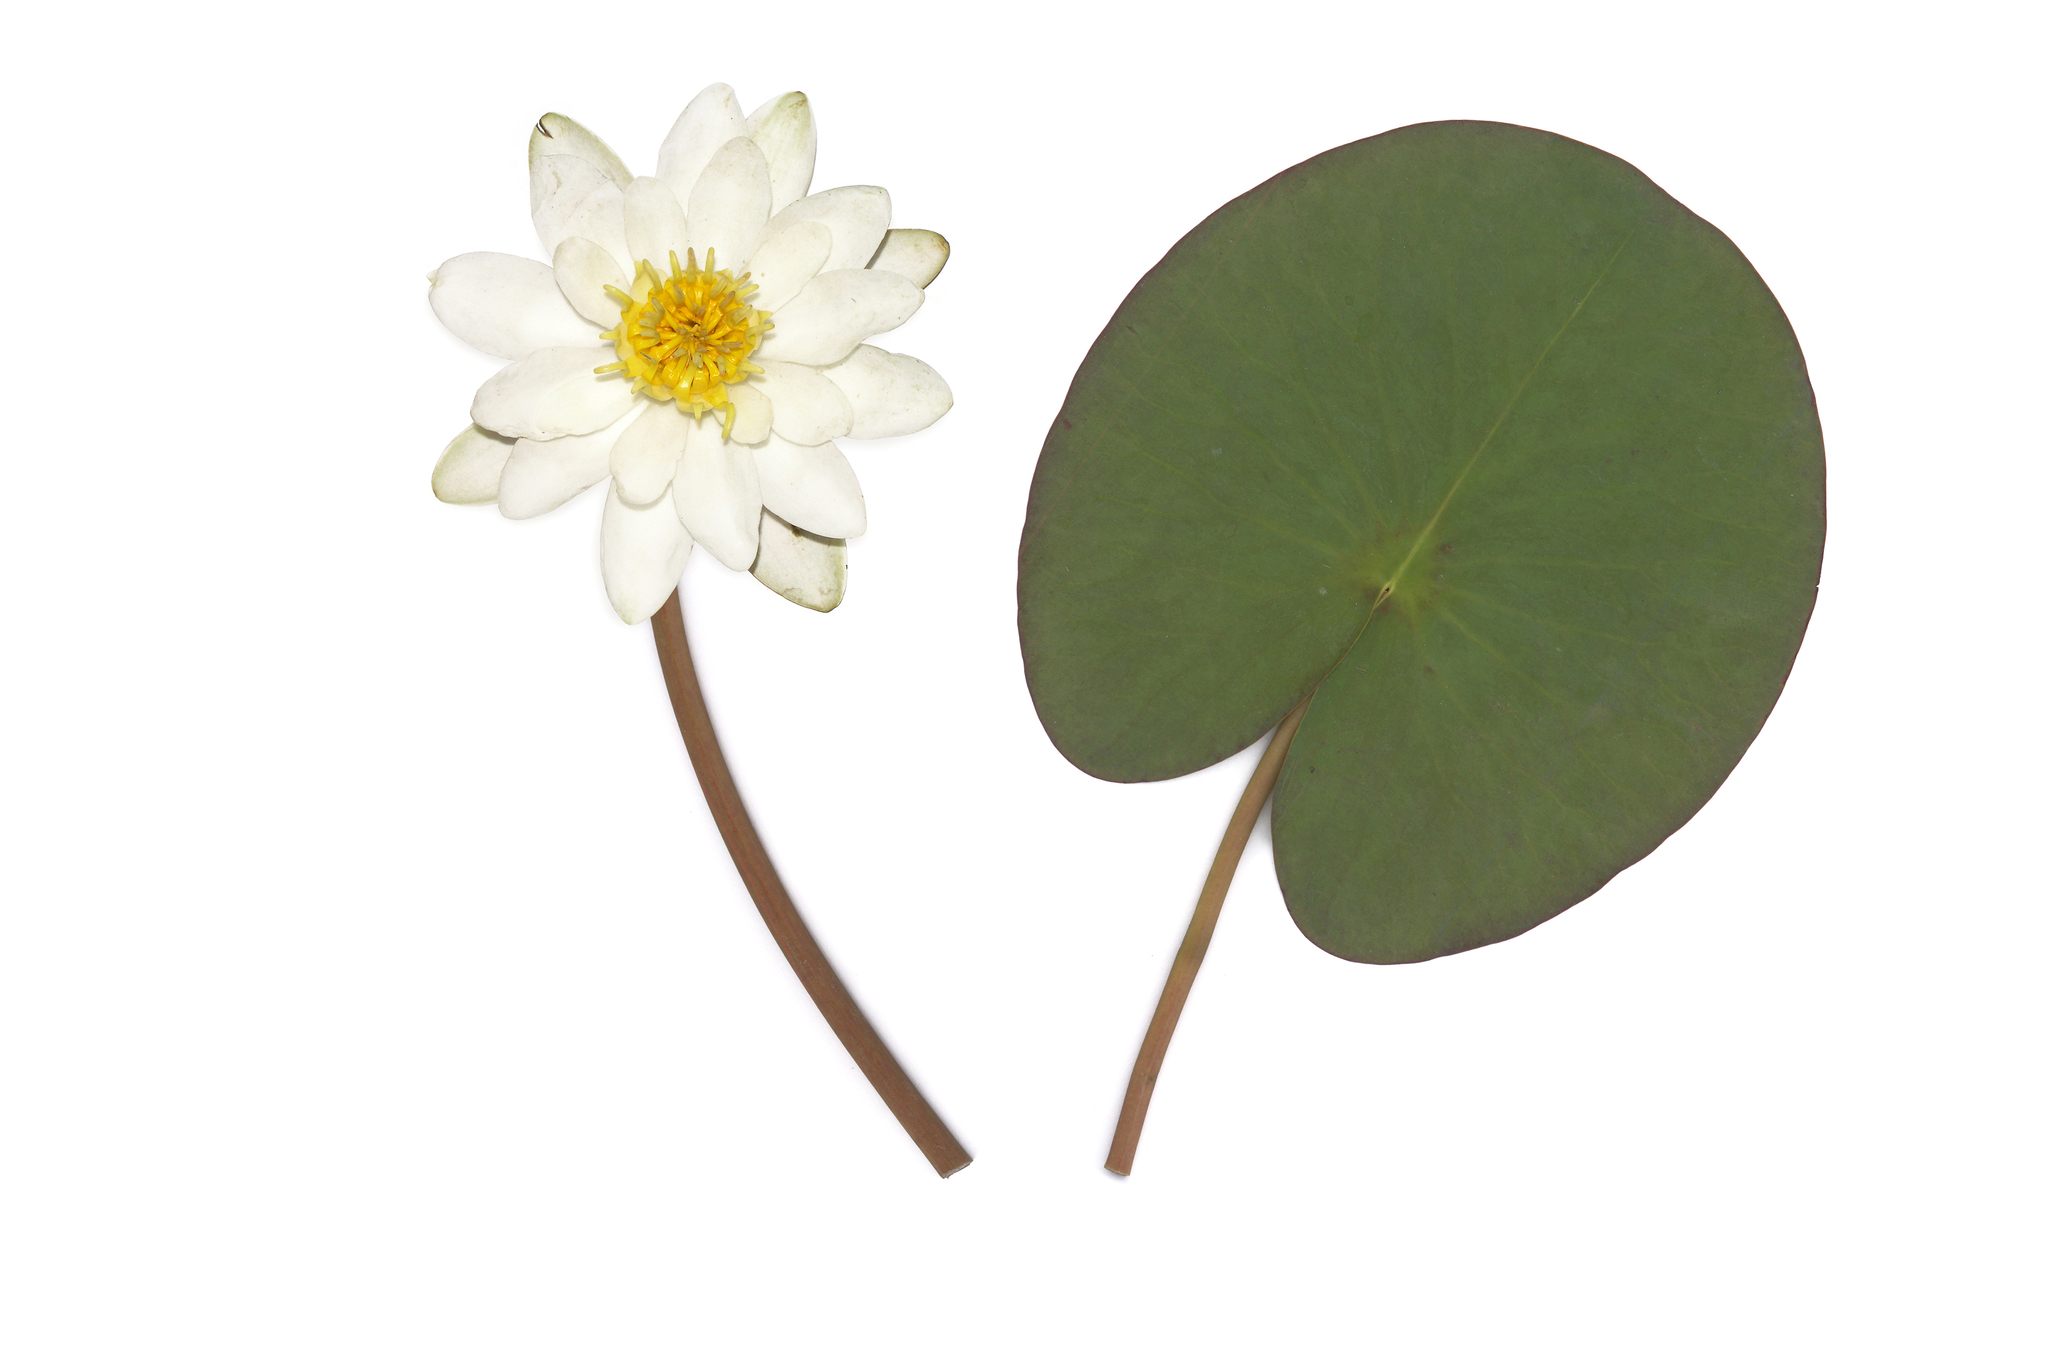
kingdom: Plantae
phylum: Tracheophyta
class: Magnoliopsida
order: Nymphaeales
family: Nymphaeaceae
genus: Nymphaea
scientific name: Nymphaea candida
